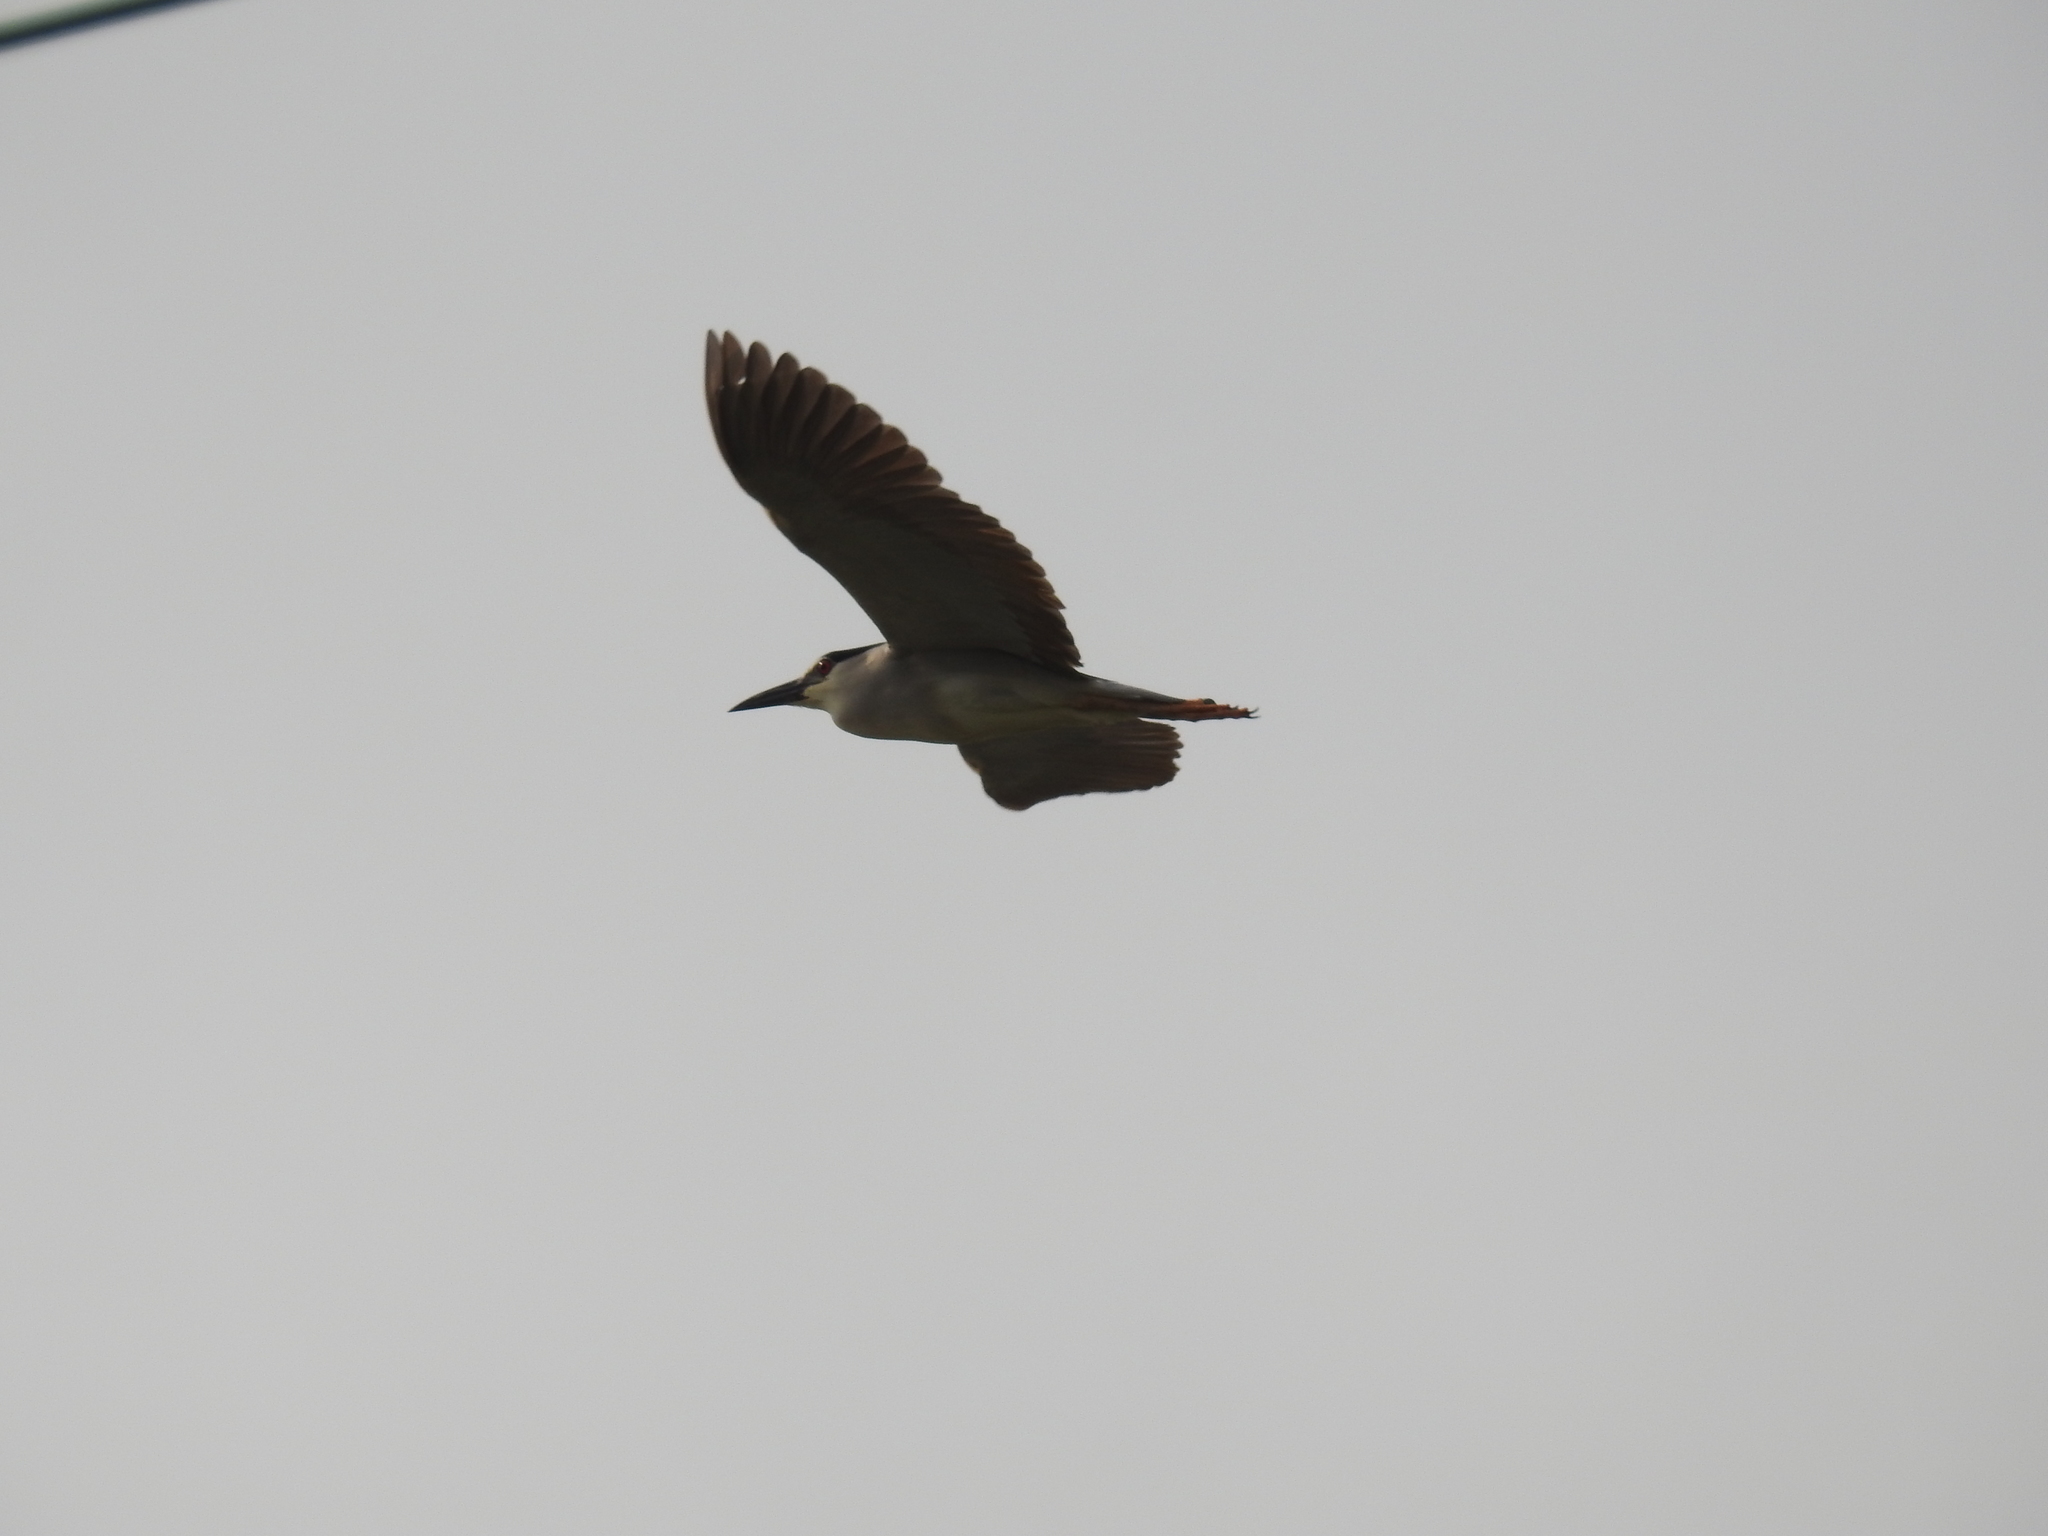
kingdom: Animalia
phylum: Chordata
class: Aves
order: Pelecaniformes
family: Ardeidae
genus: Nycticorax
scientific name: Nycticorax nycticorax
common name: Black-crowned night heron
